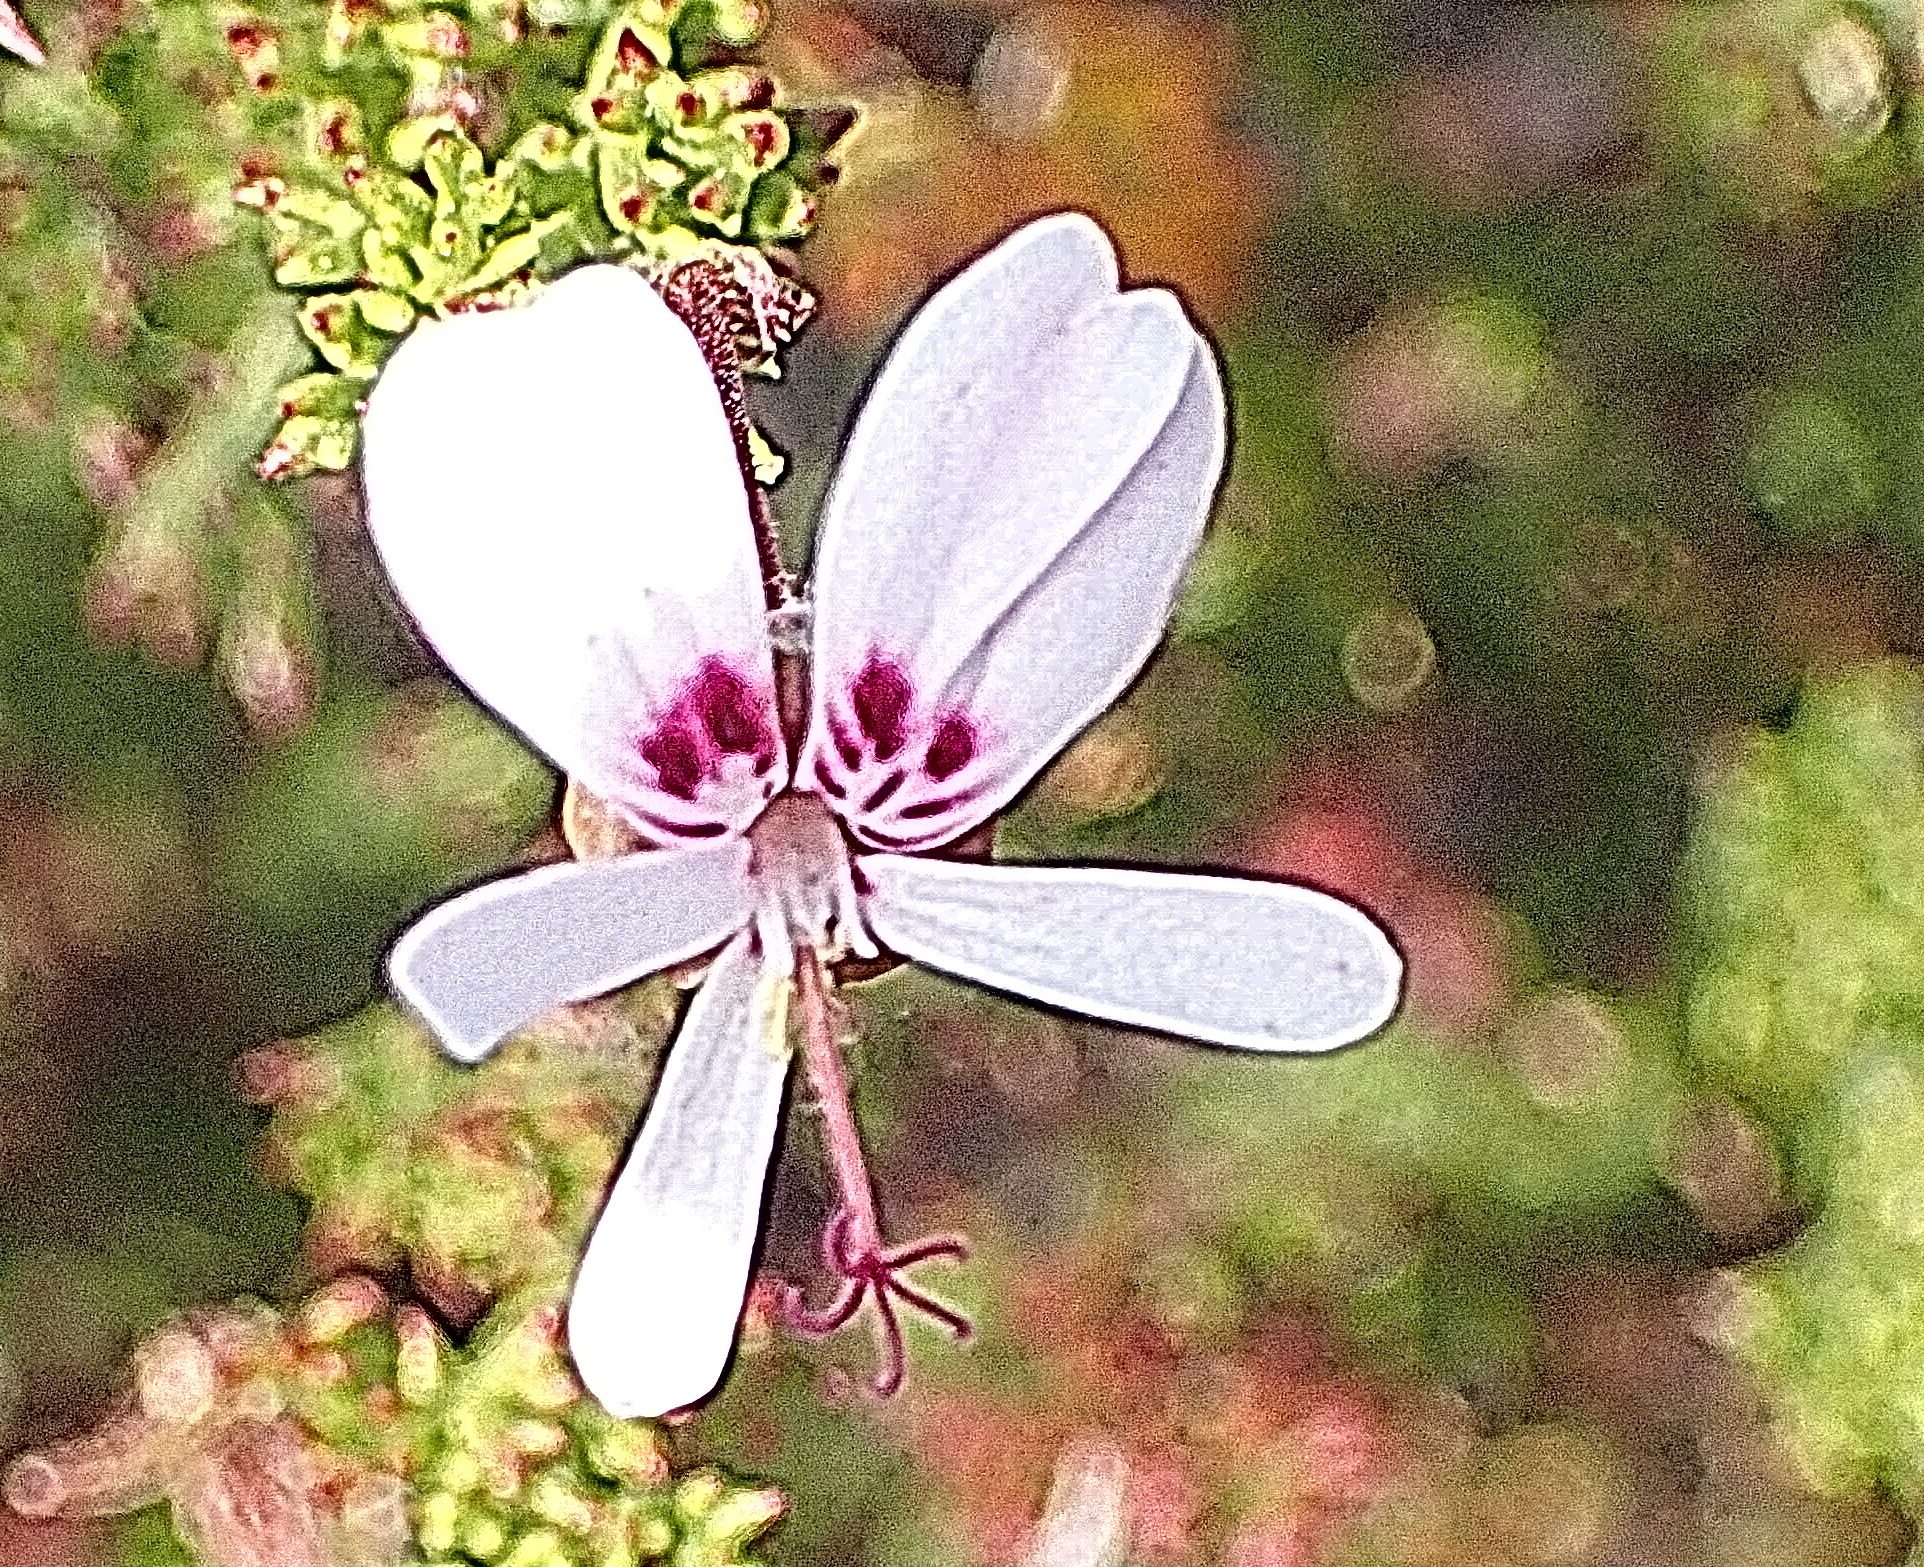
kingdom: Plantae
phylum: Tracheophyta
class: Magnoliopsida
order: Geraniales
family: Geraniaceae
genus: Pelargonium
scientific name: Pelargonium fruticosum
